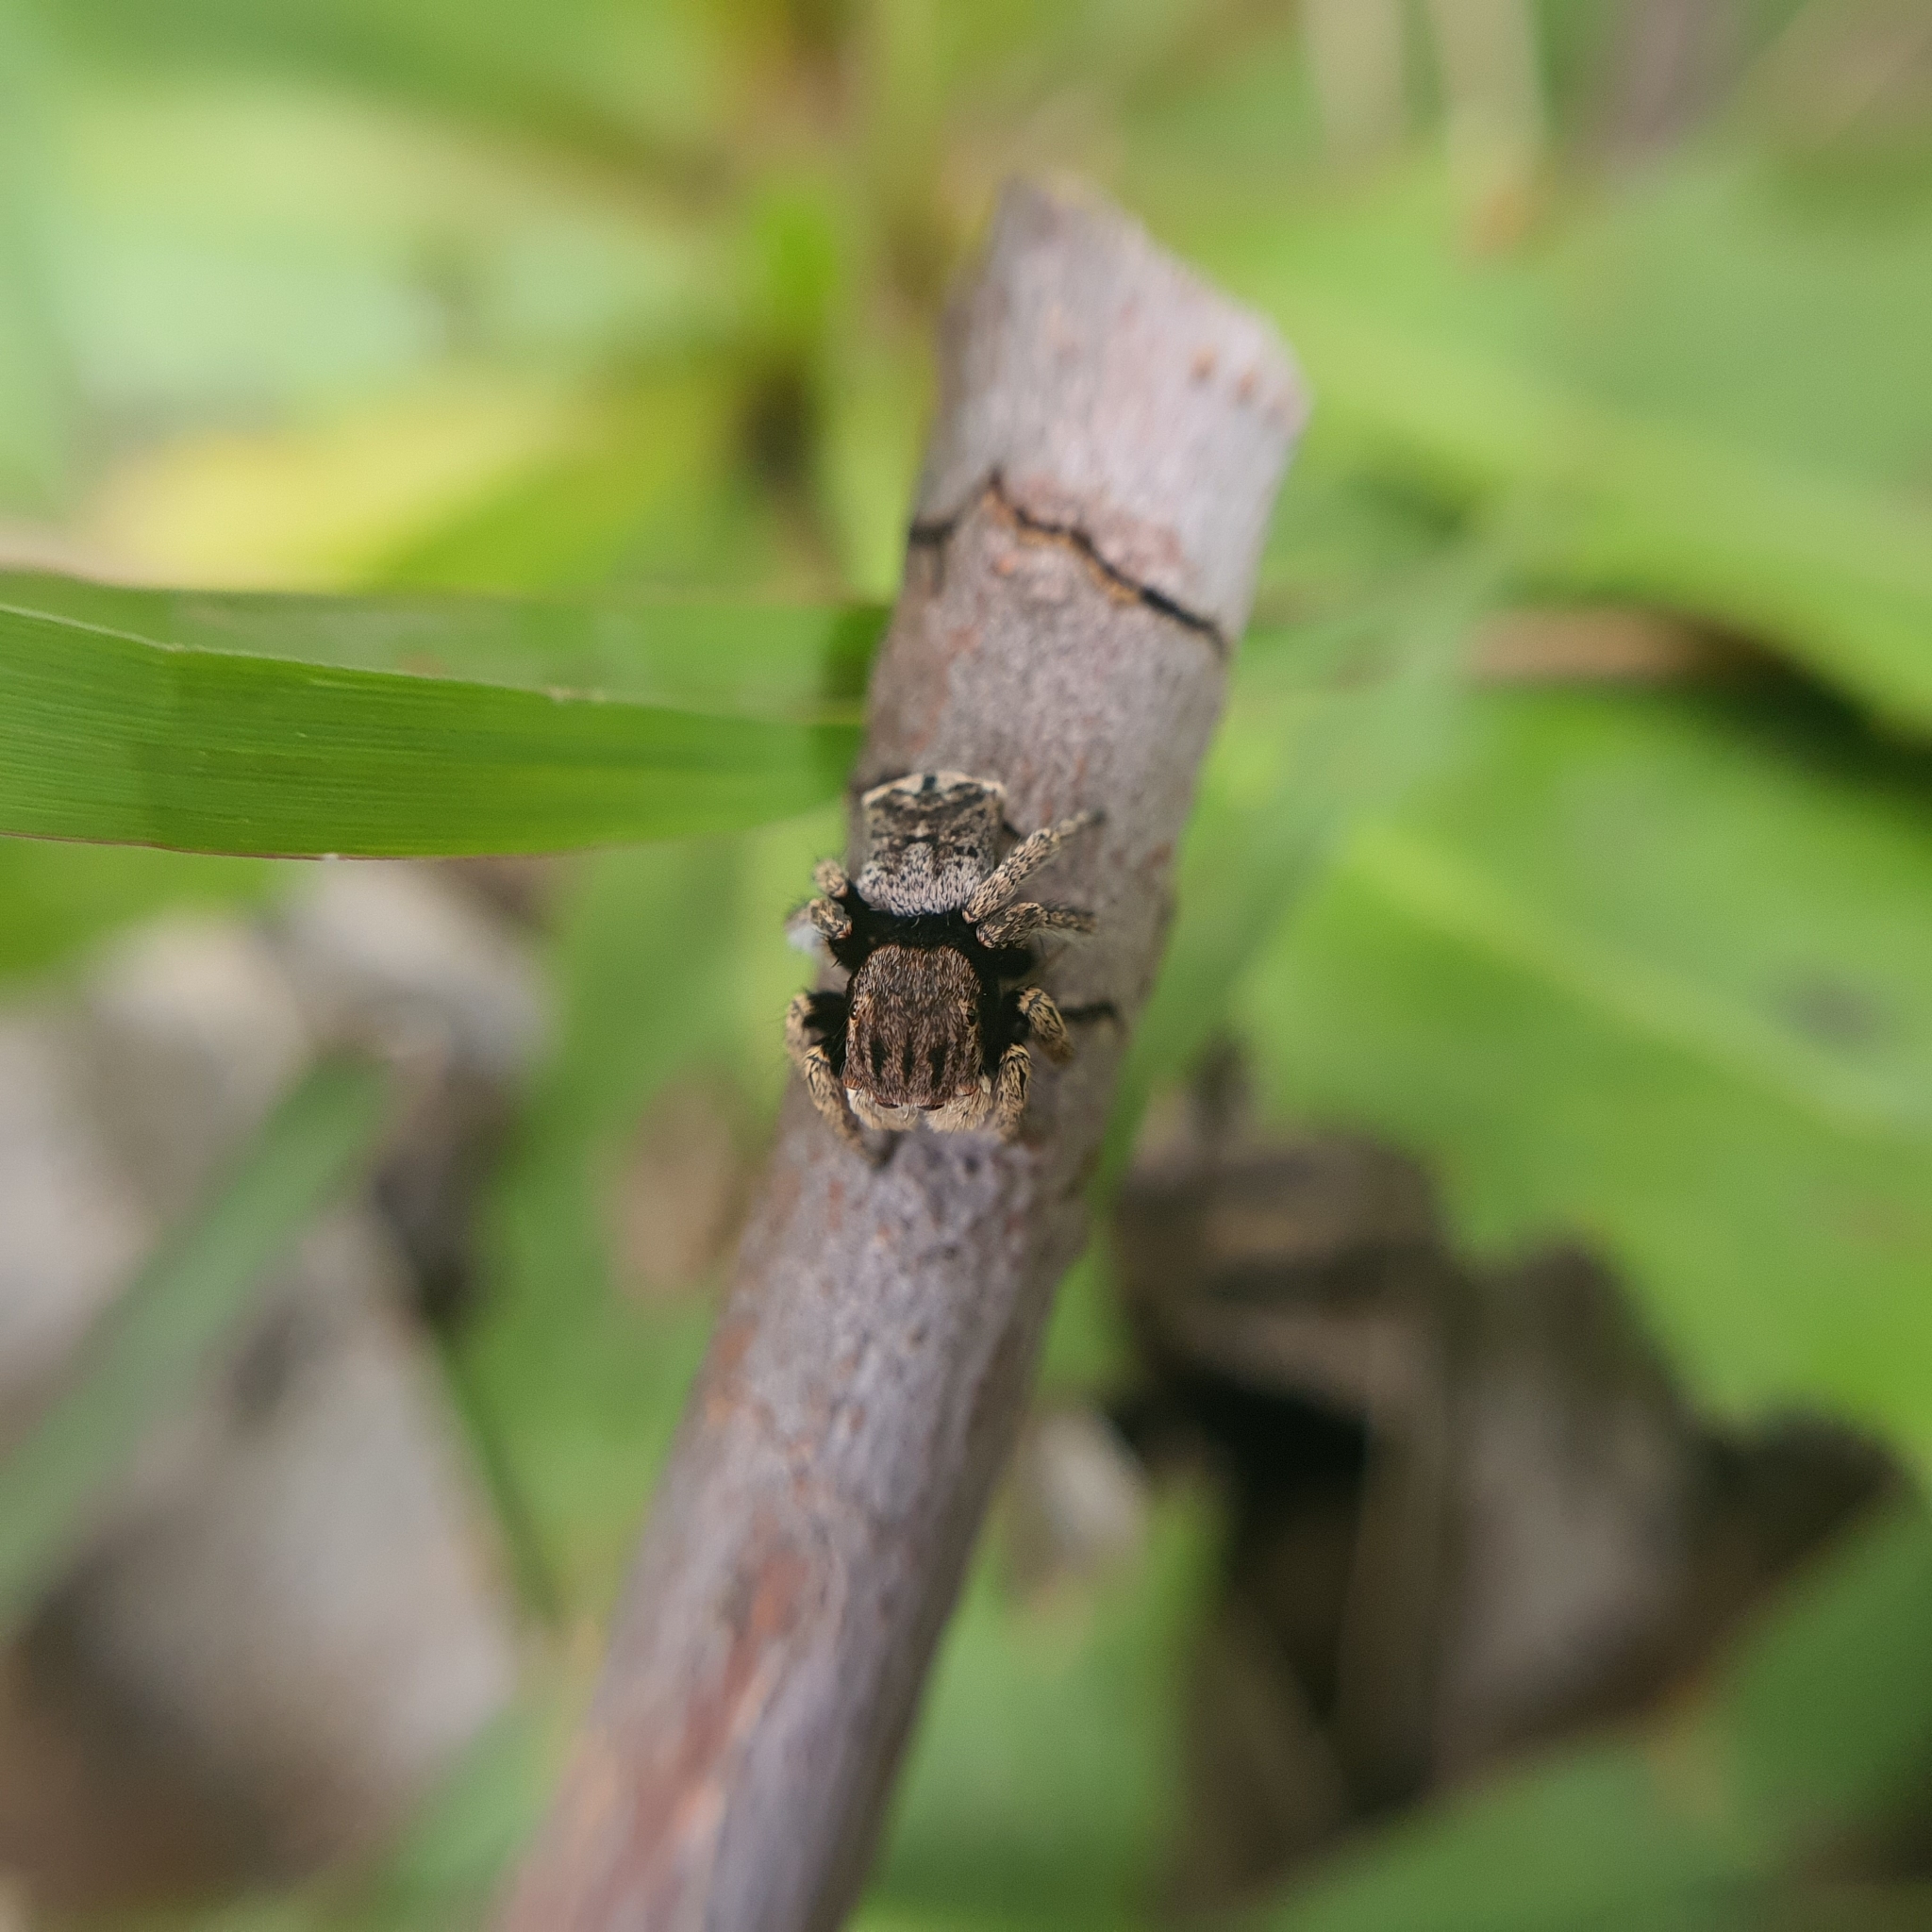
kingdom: Animalia
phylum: Arthropoda
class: Arachnida
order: Araneae
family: Salticidae
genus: Maratus
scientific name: Maratus vespertilio
